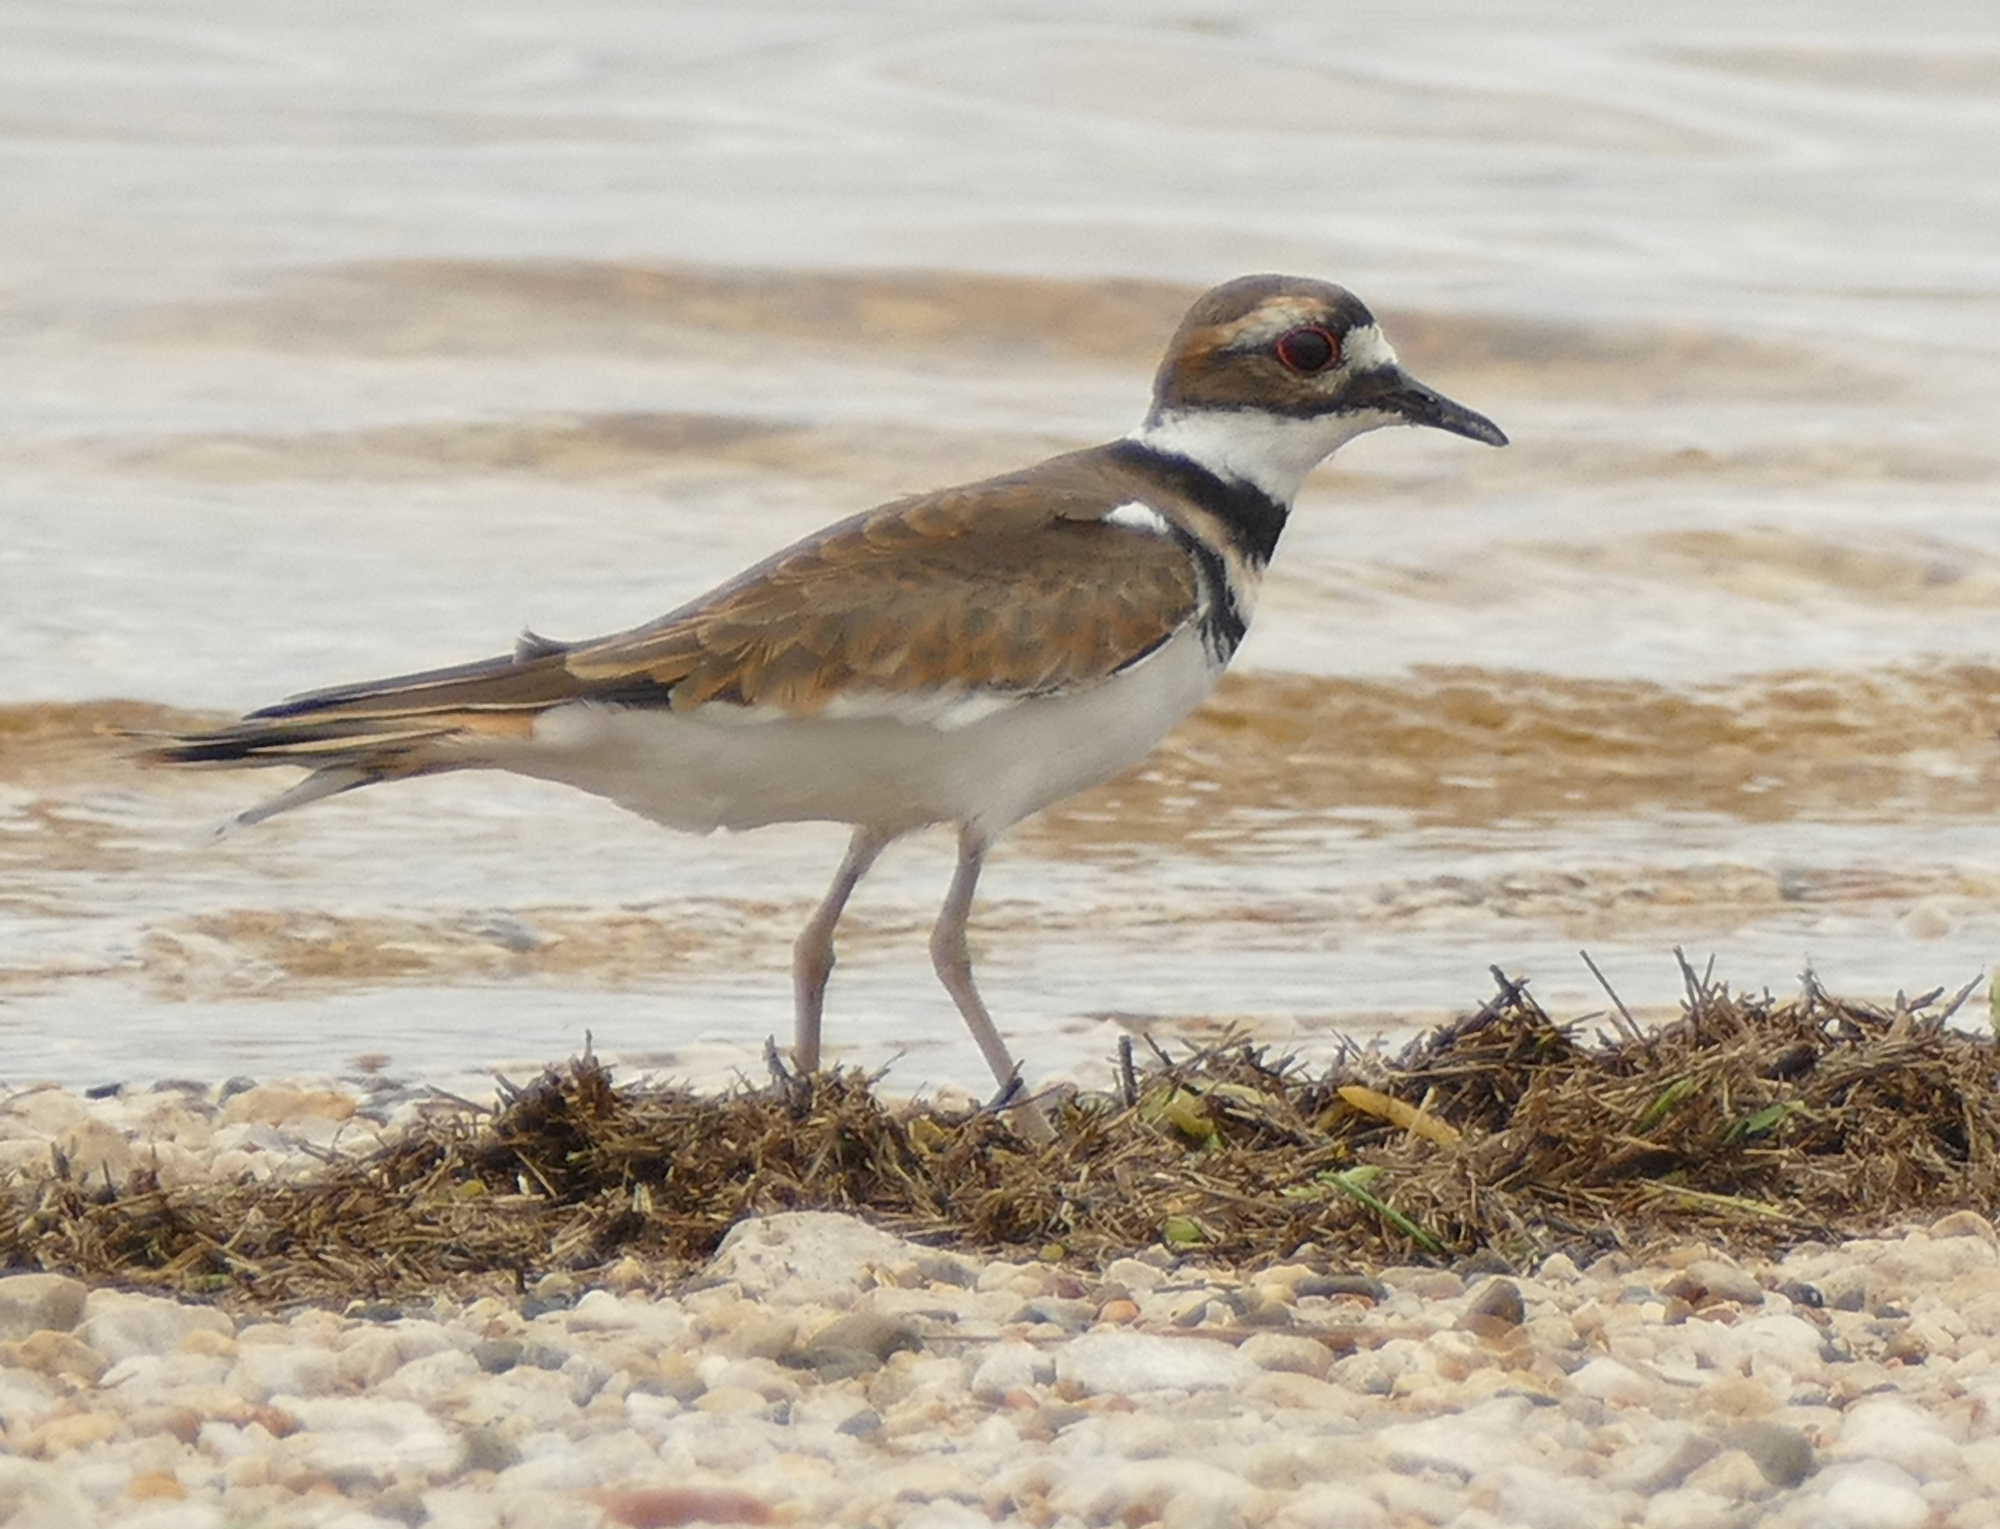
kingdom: Animalia
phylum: Chordata
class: Aves
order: Charadriiformes
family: Charadriidae
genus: Charadrius
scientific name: Charadrius vociferus
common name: Killdeer
